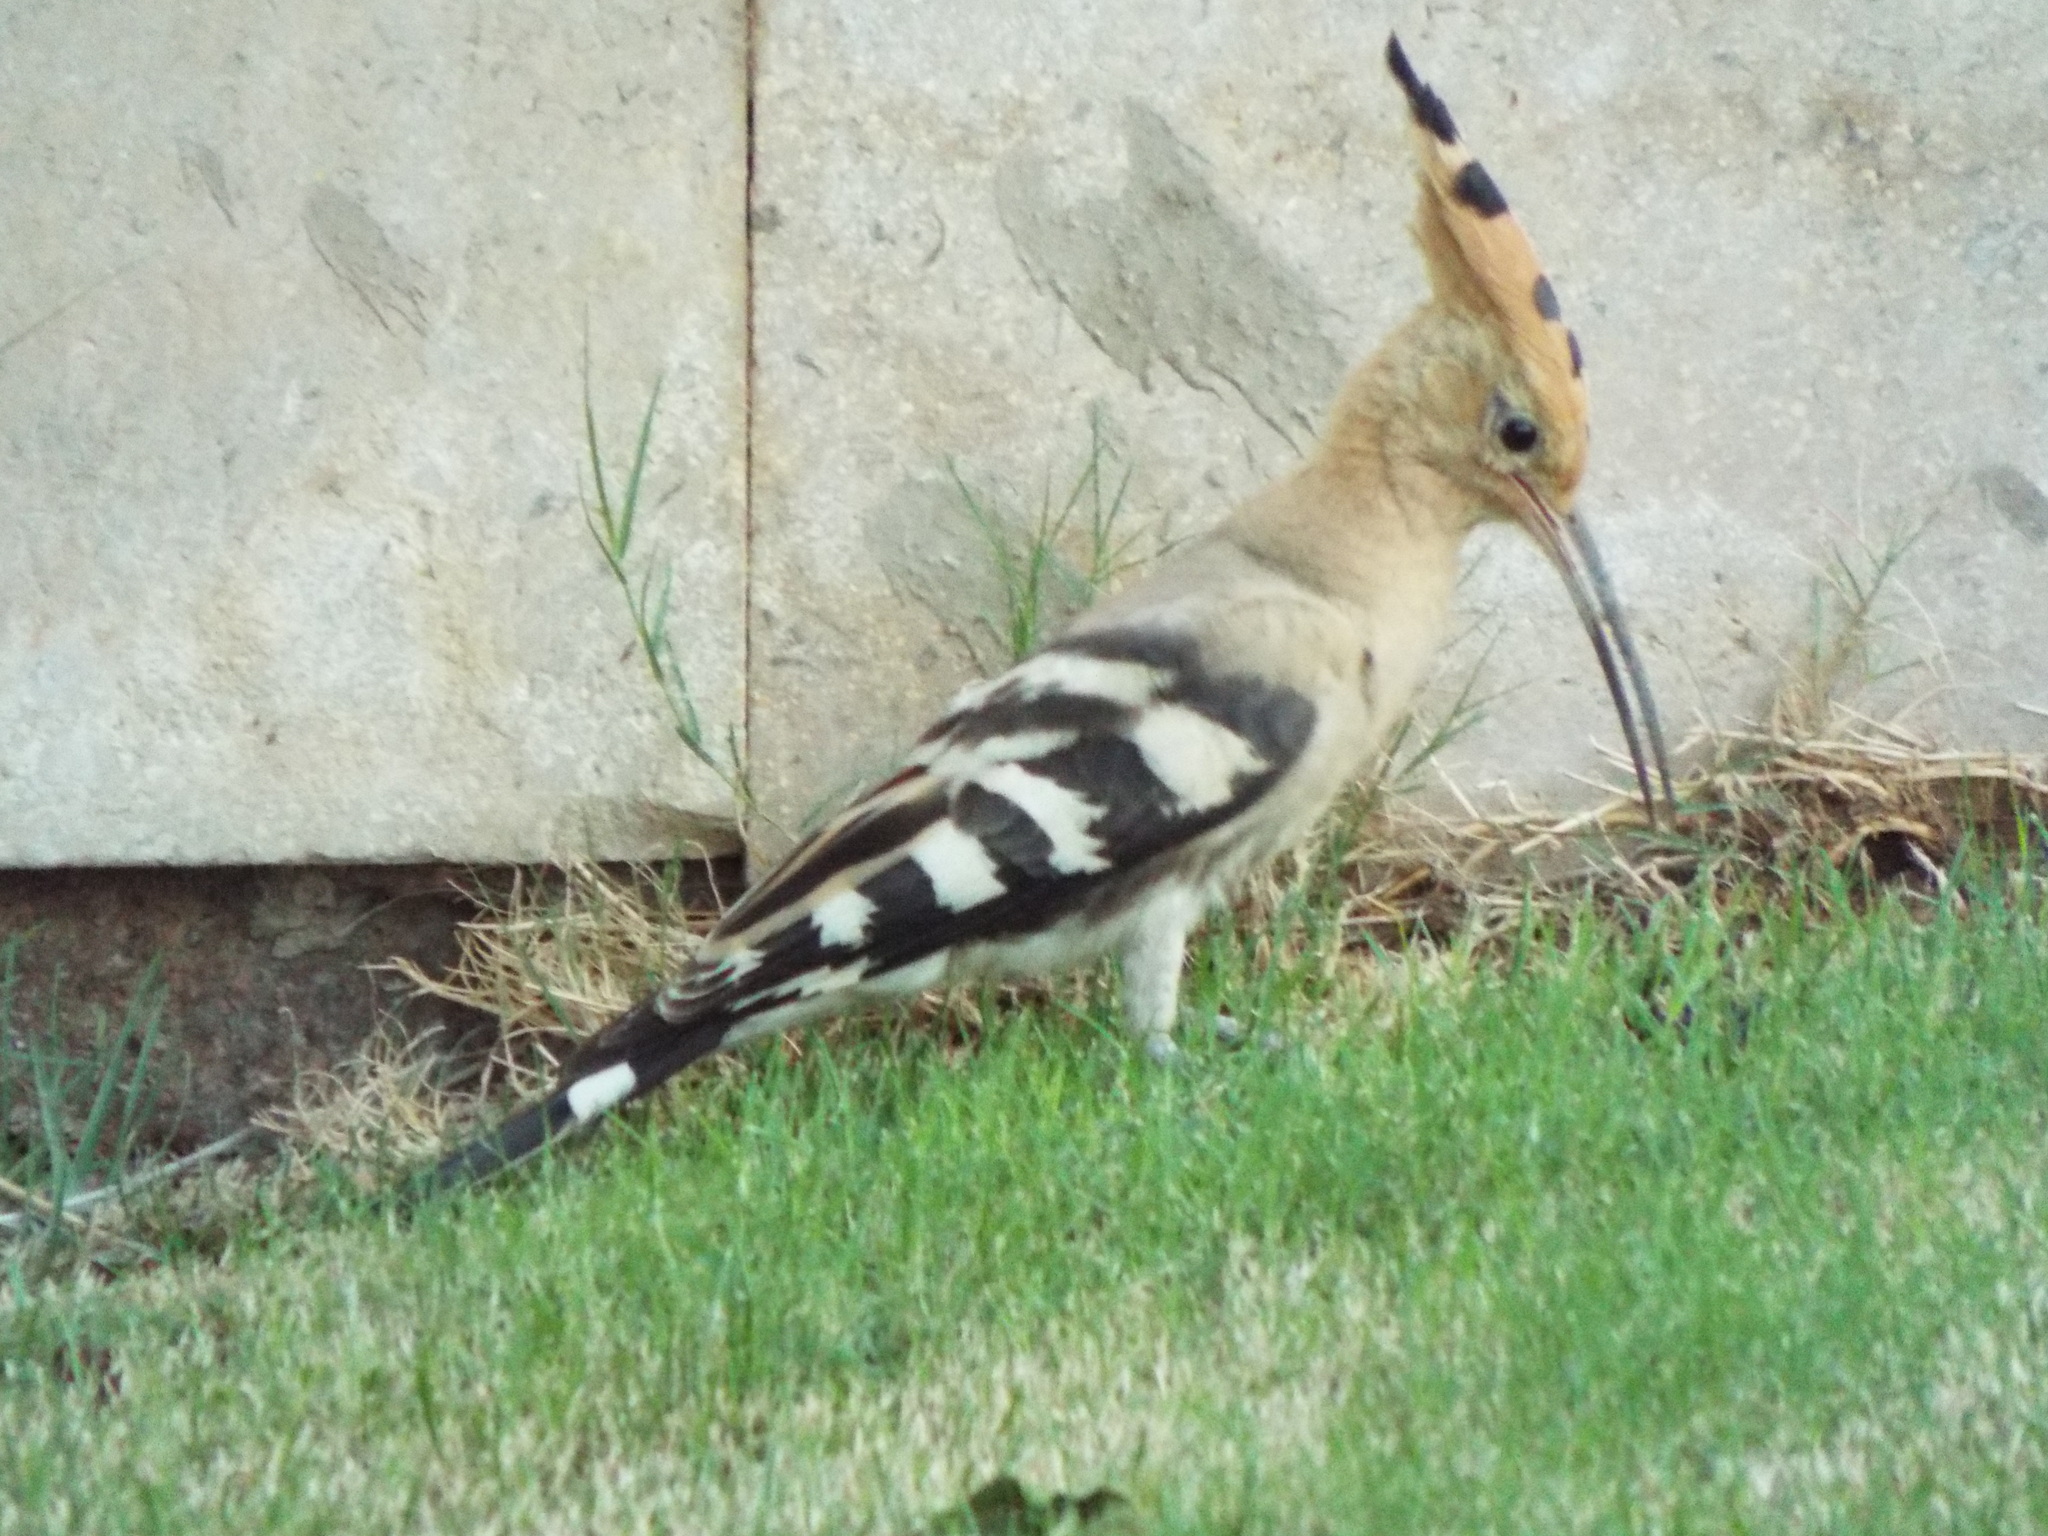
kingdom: Animalia
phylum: Chordata
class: Aves
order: Bucerotiformes
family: Upupidae
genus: Upupa
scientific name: Upupa epops
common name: Eurasian hoopoe
